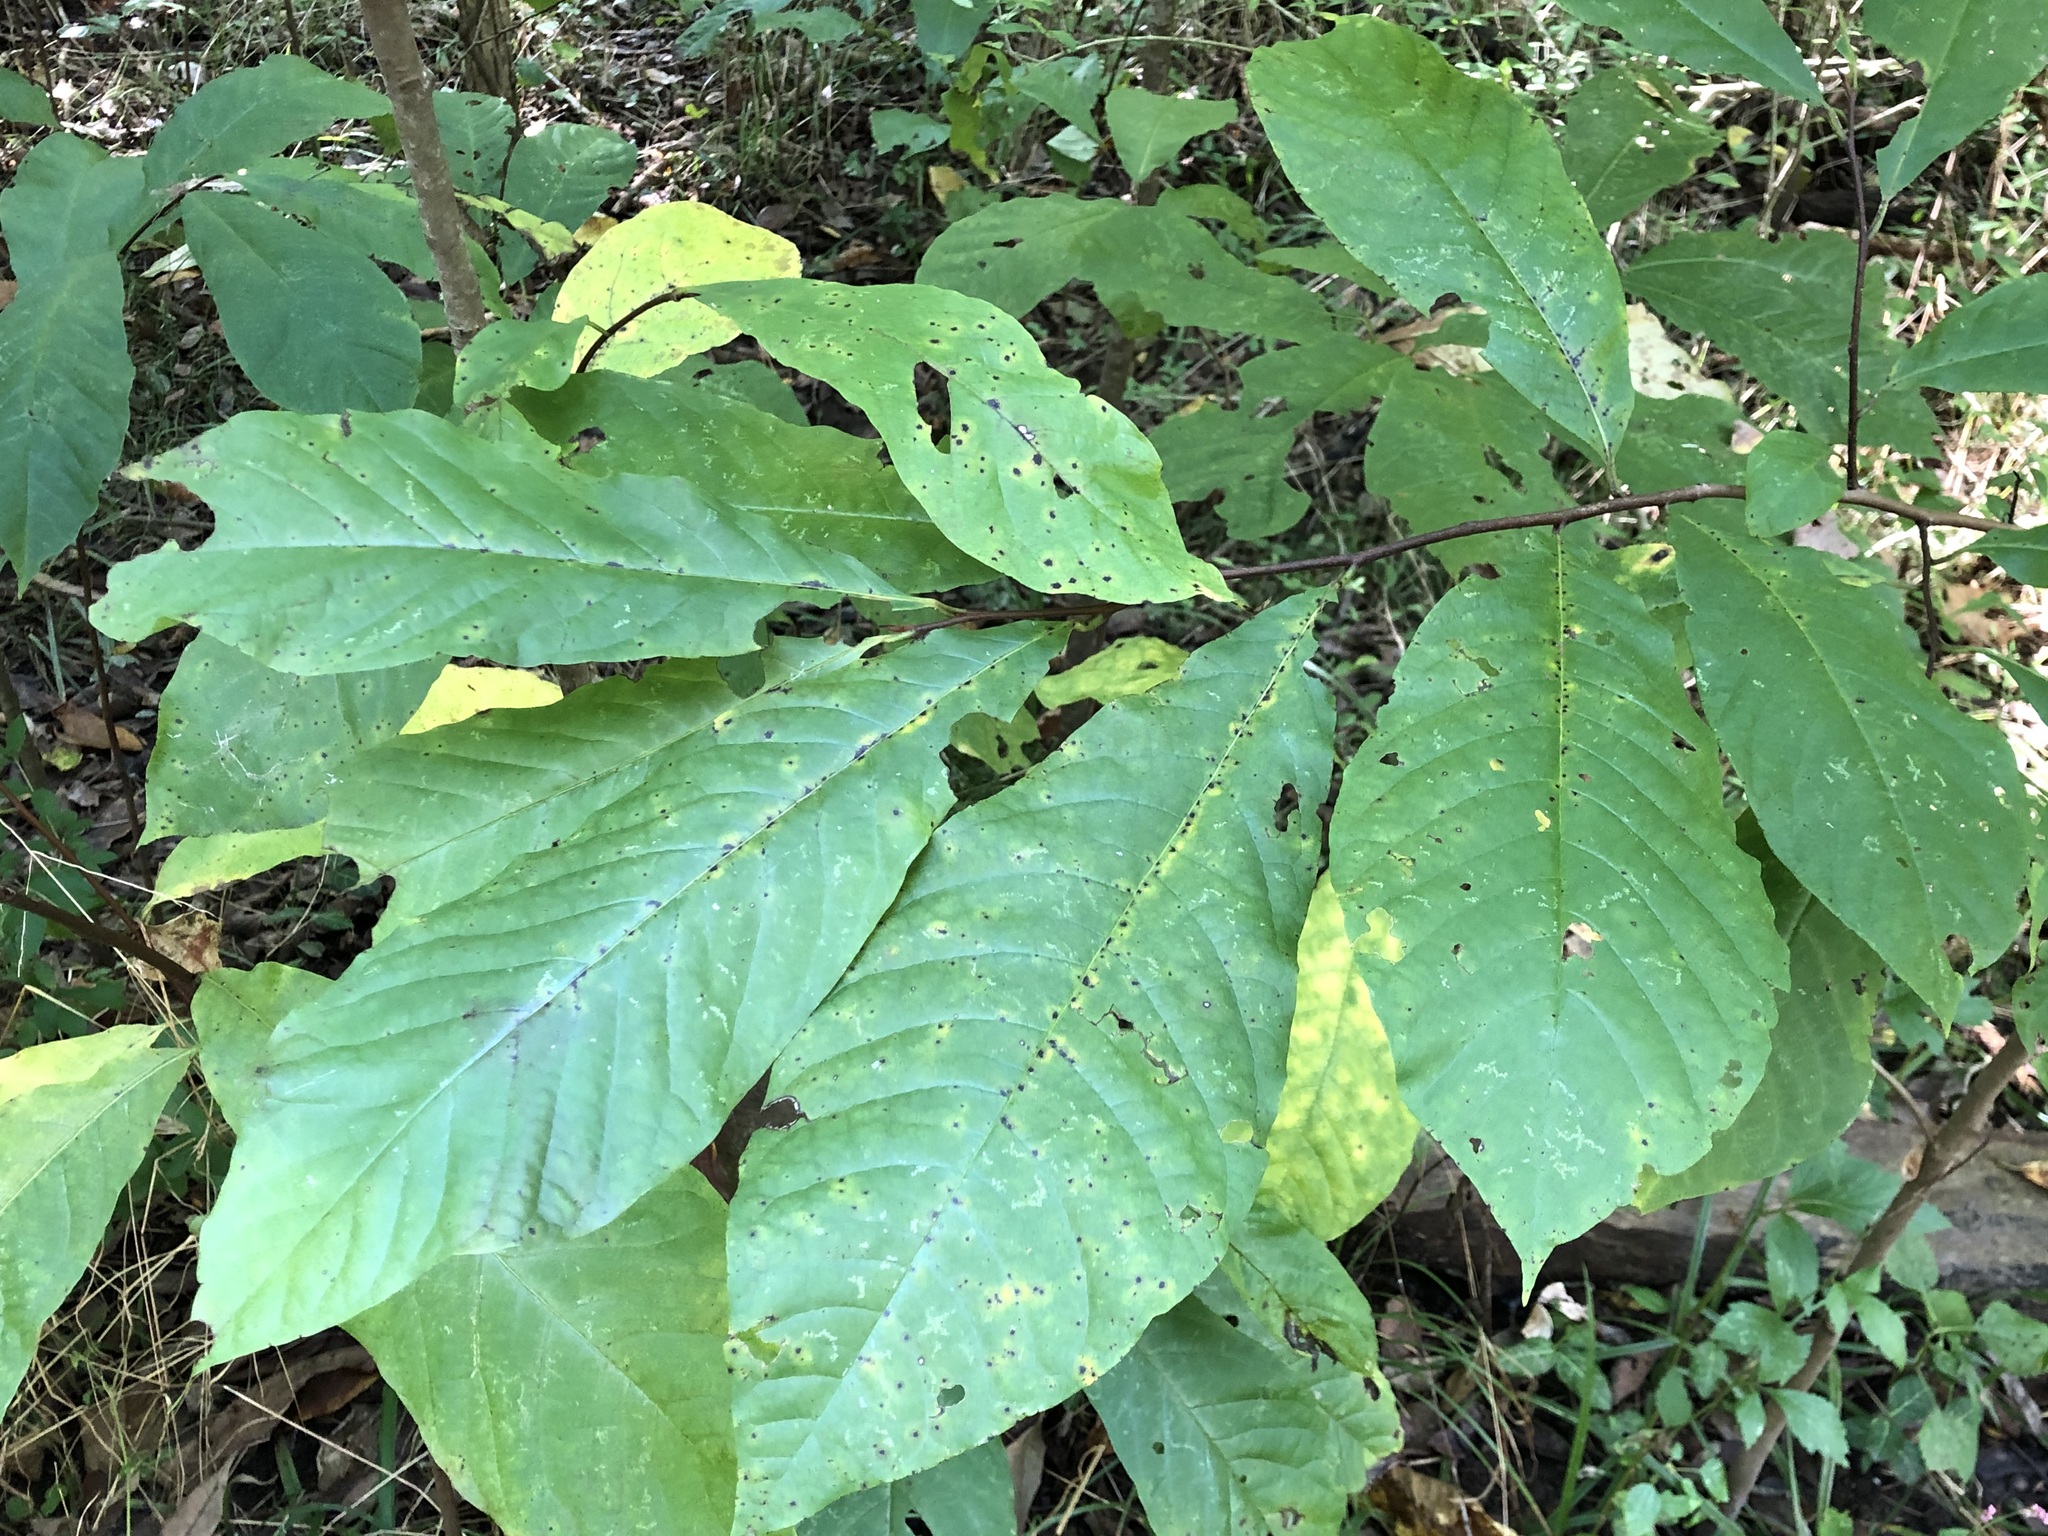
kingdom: Plantae
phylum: Tracheophyta
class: Magnoliopsida
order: Magnoliales
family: Annonaceae
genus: Asimina
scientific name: Asimina triloba
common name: Dog-banana
